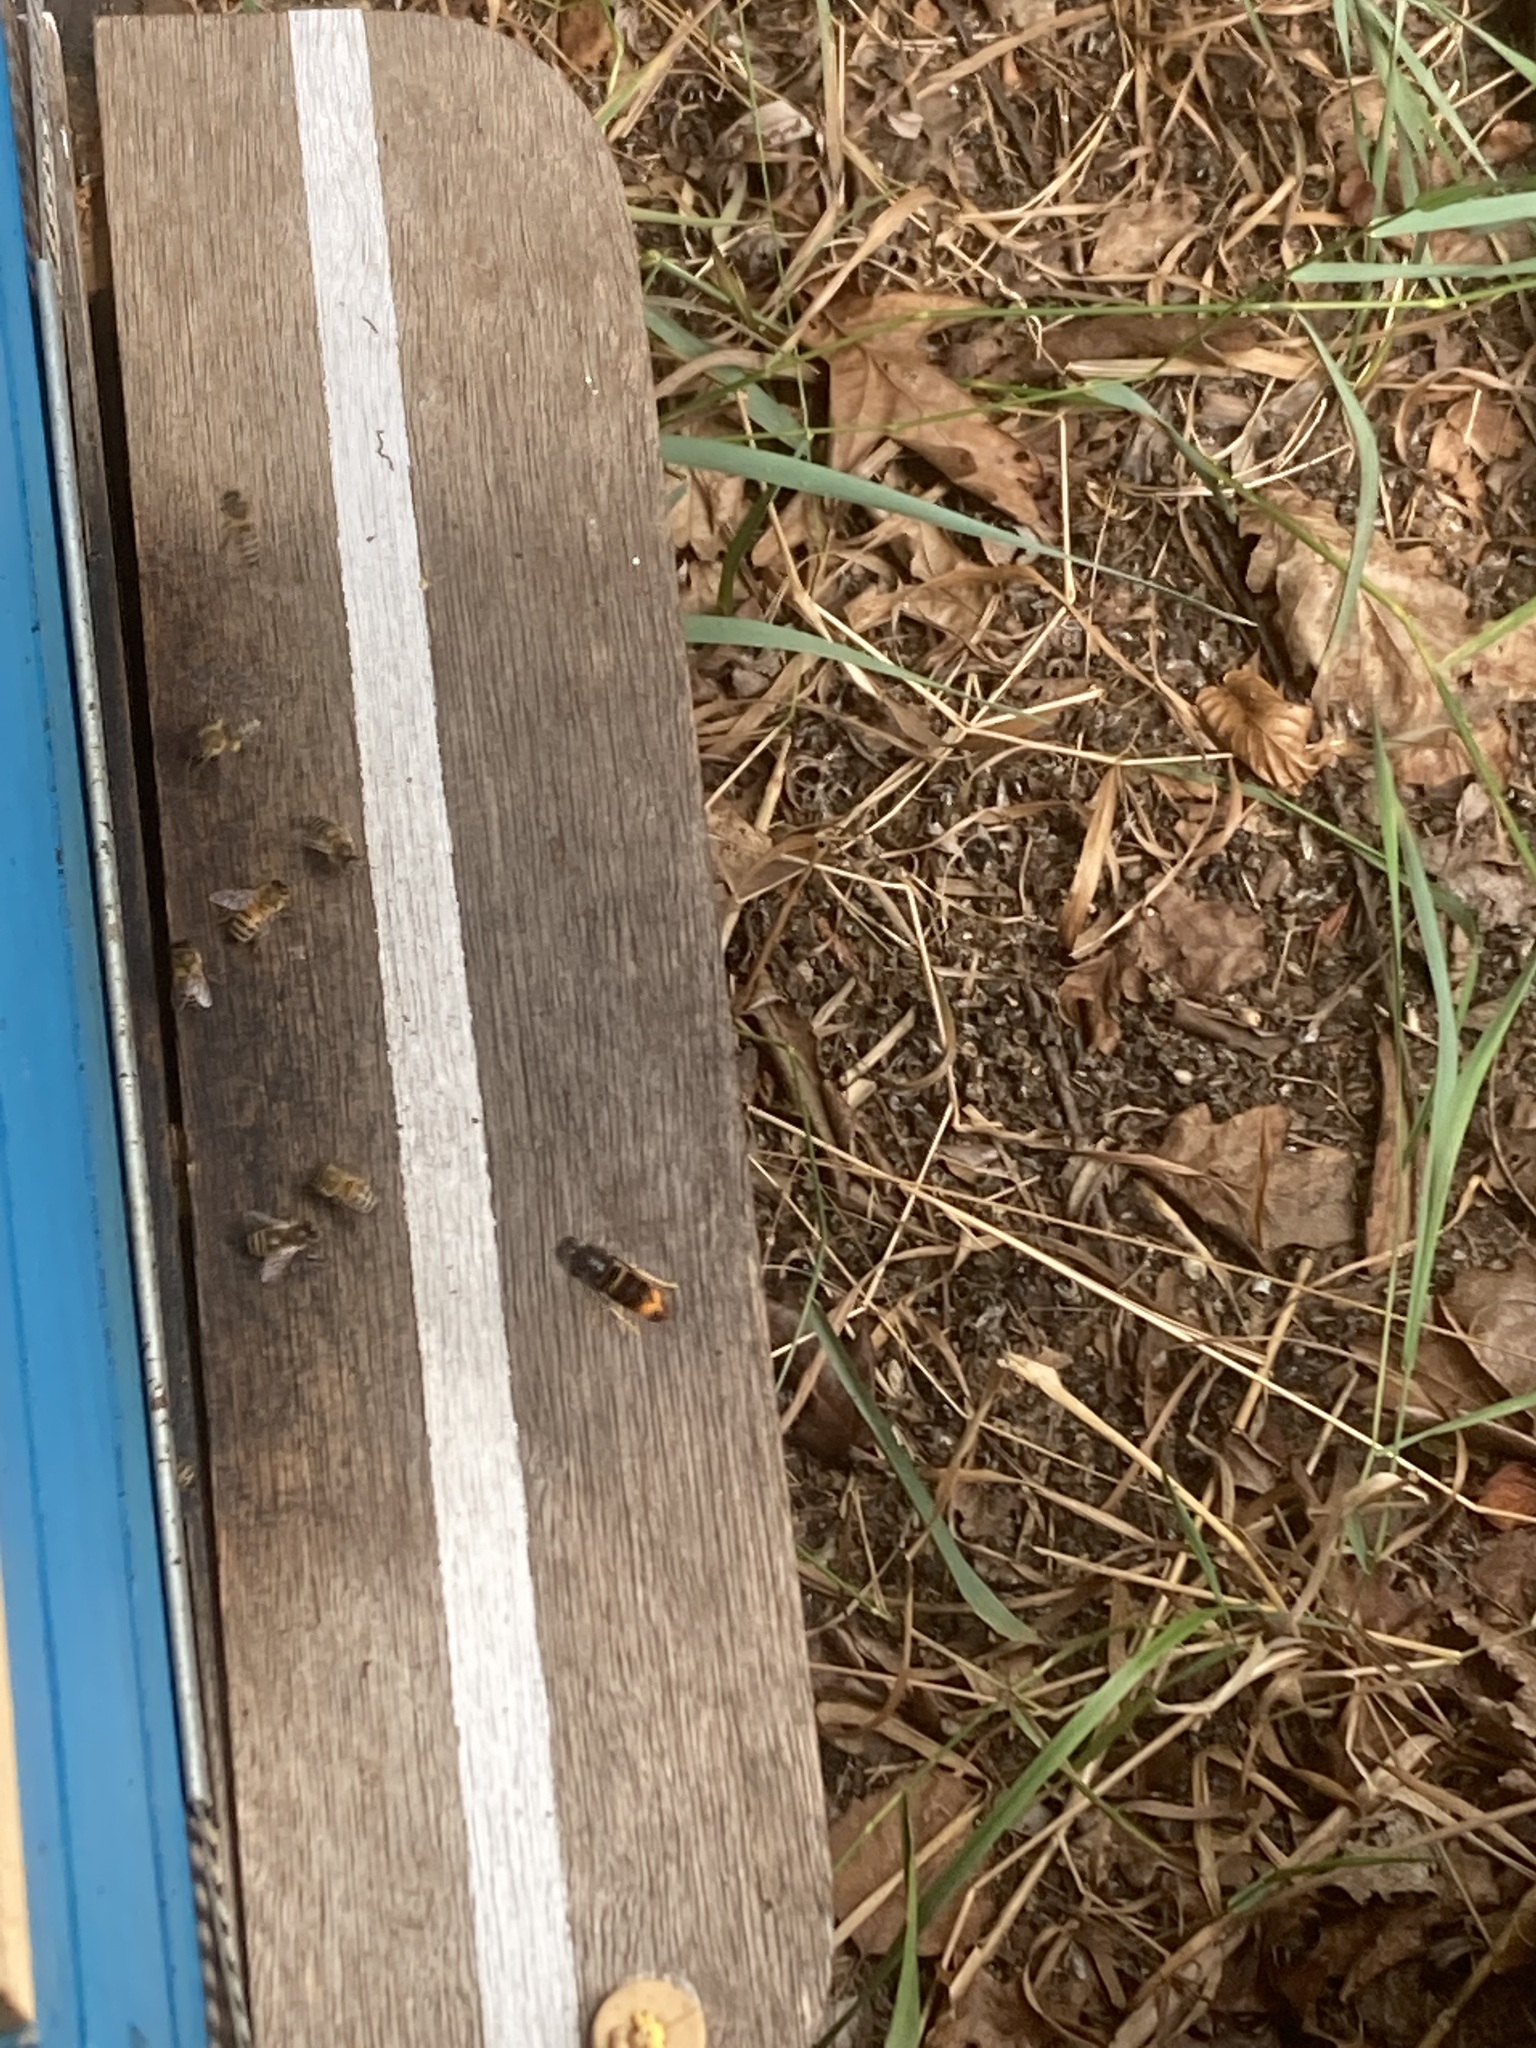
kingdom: Animalia
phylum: Arthropoda
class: Insecta
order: Hymenoptera
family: Vespidae
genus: Vespa
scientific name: Vespa velutina
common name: Asian hornet
